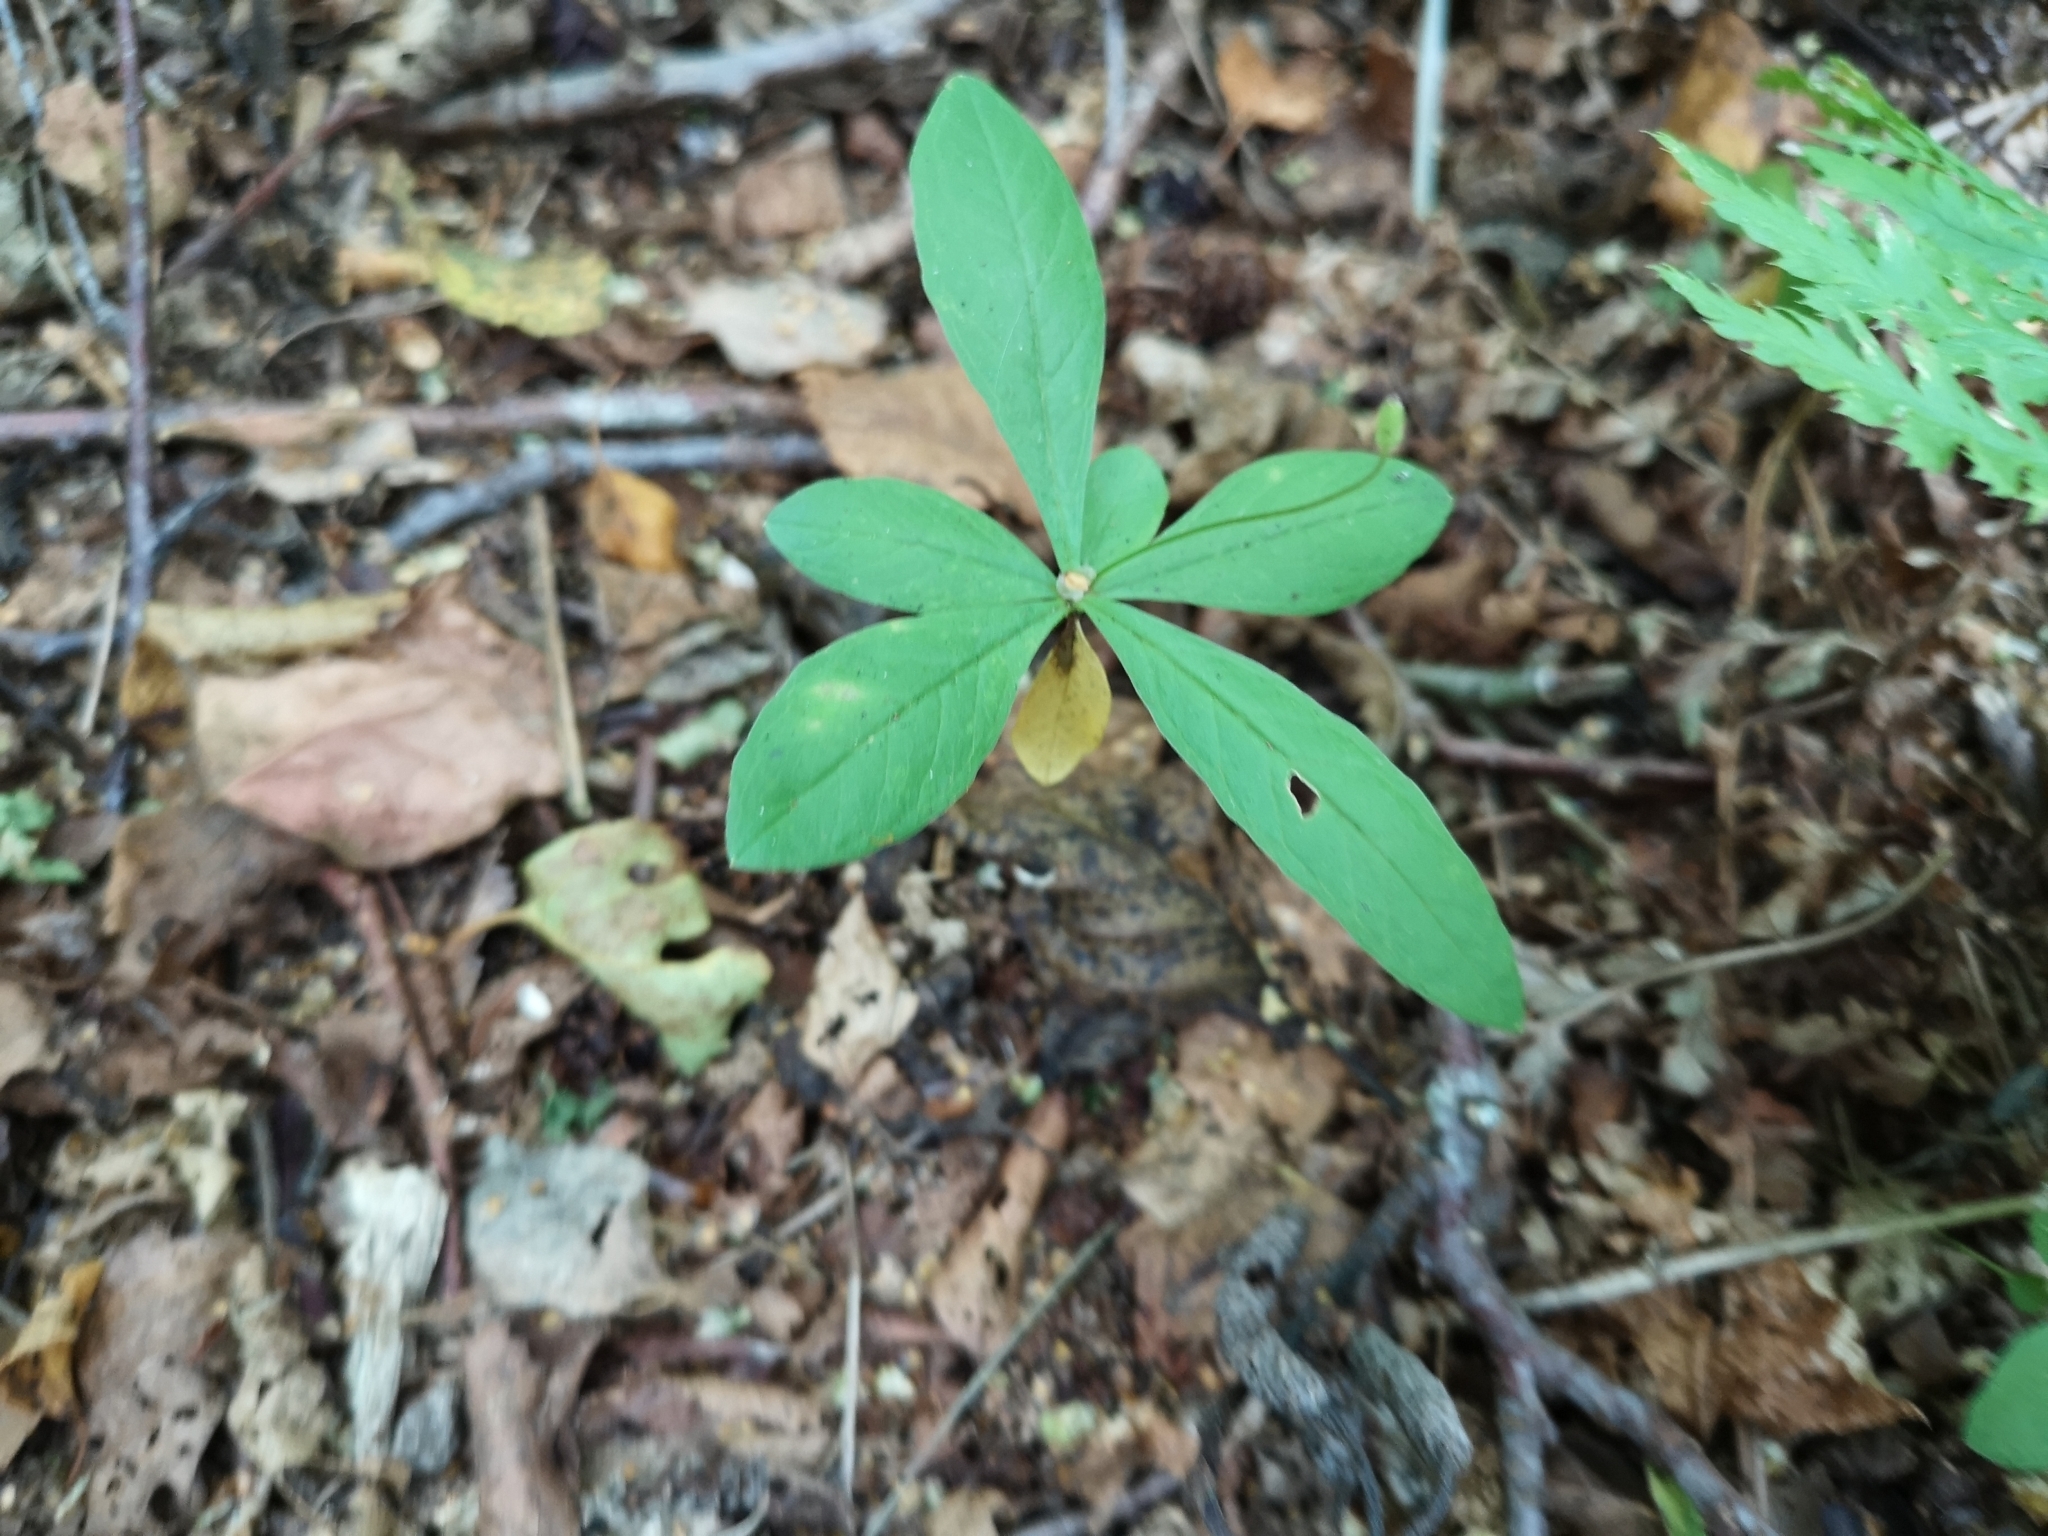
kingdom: Plantae
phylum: Tracheophyta
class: Magnoliopsida
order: Ericales
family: Primulaceae
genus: Lysimachia
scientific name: Lysimachia europaea
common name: Arctic starflower
